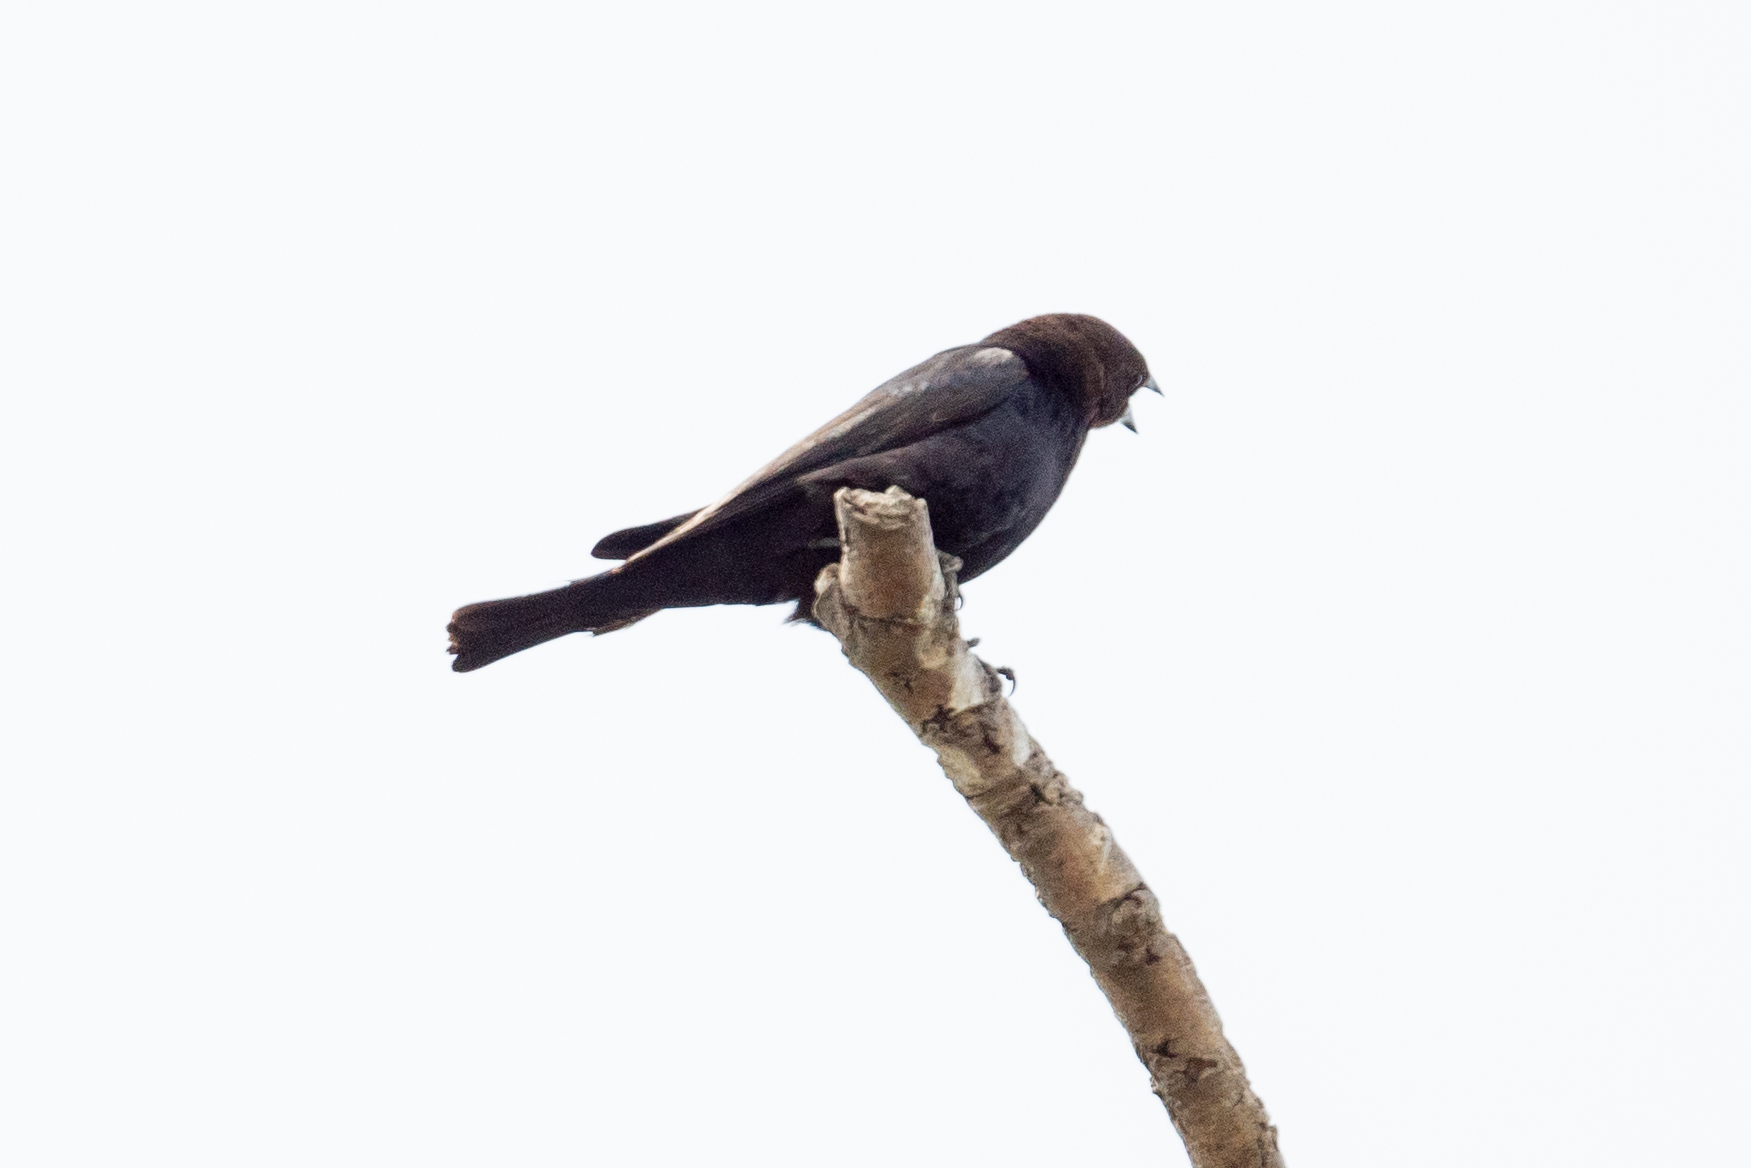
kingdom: Animalia
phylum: Chordata
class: Aves
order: Passeriformes
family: Icteridae
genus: Molothrus
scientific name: Molothrus ater
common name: Brown-headed cowbird
